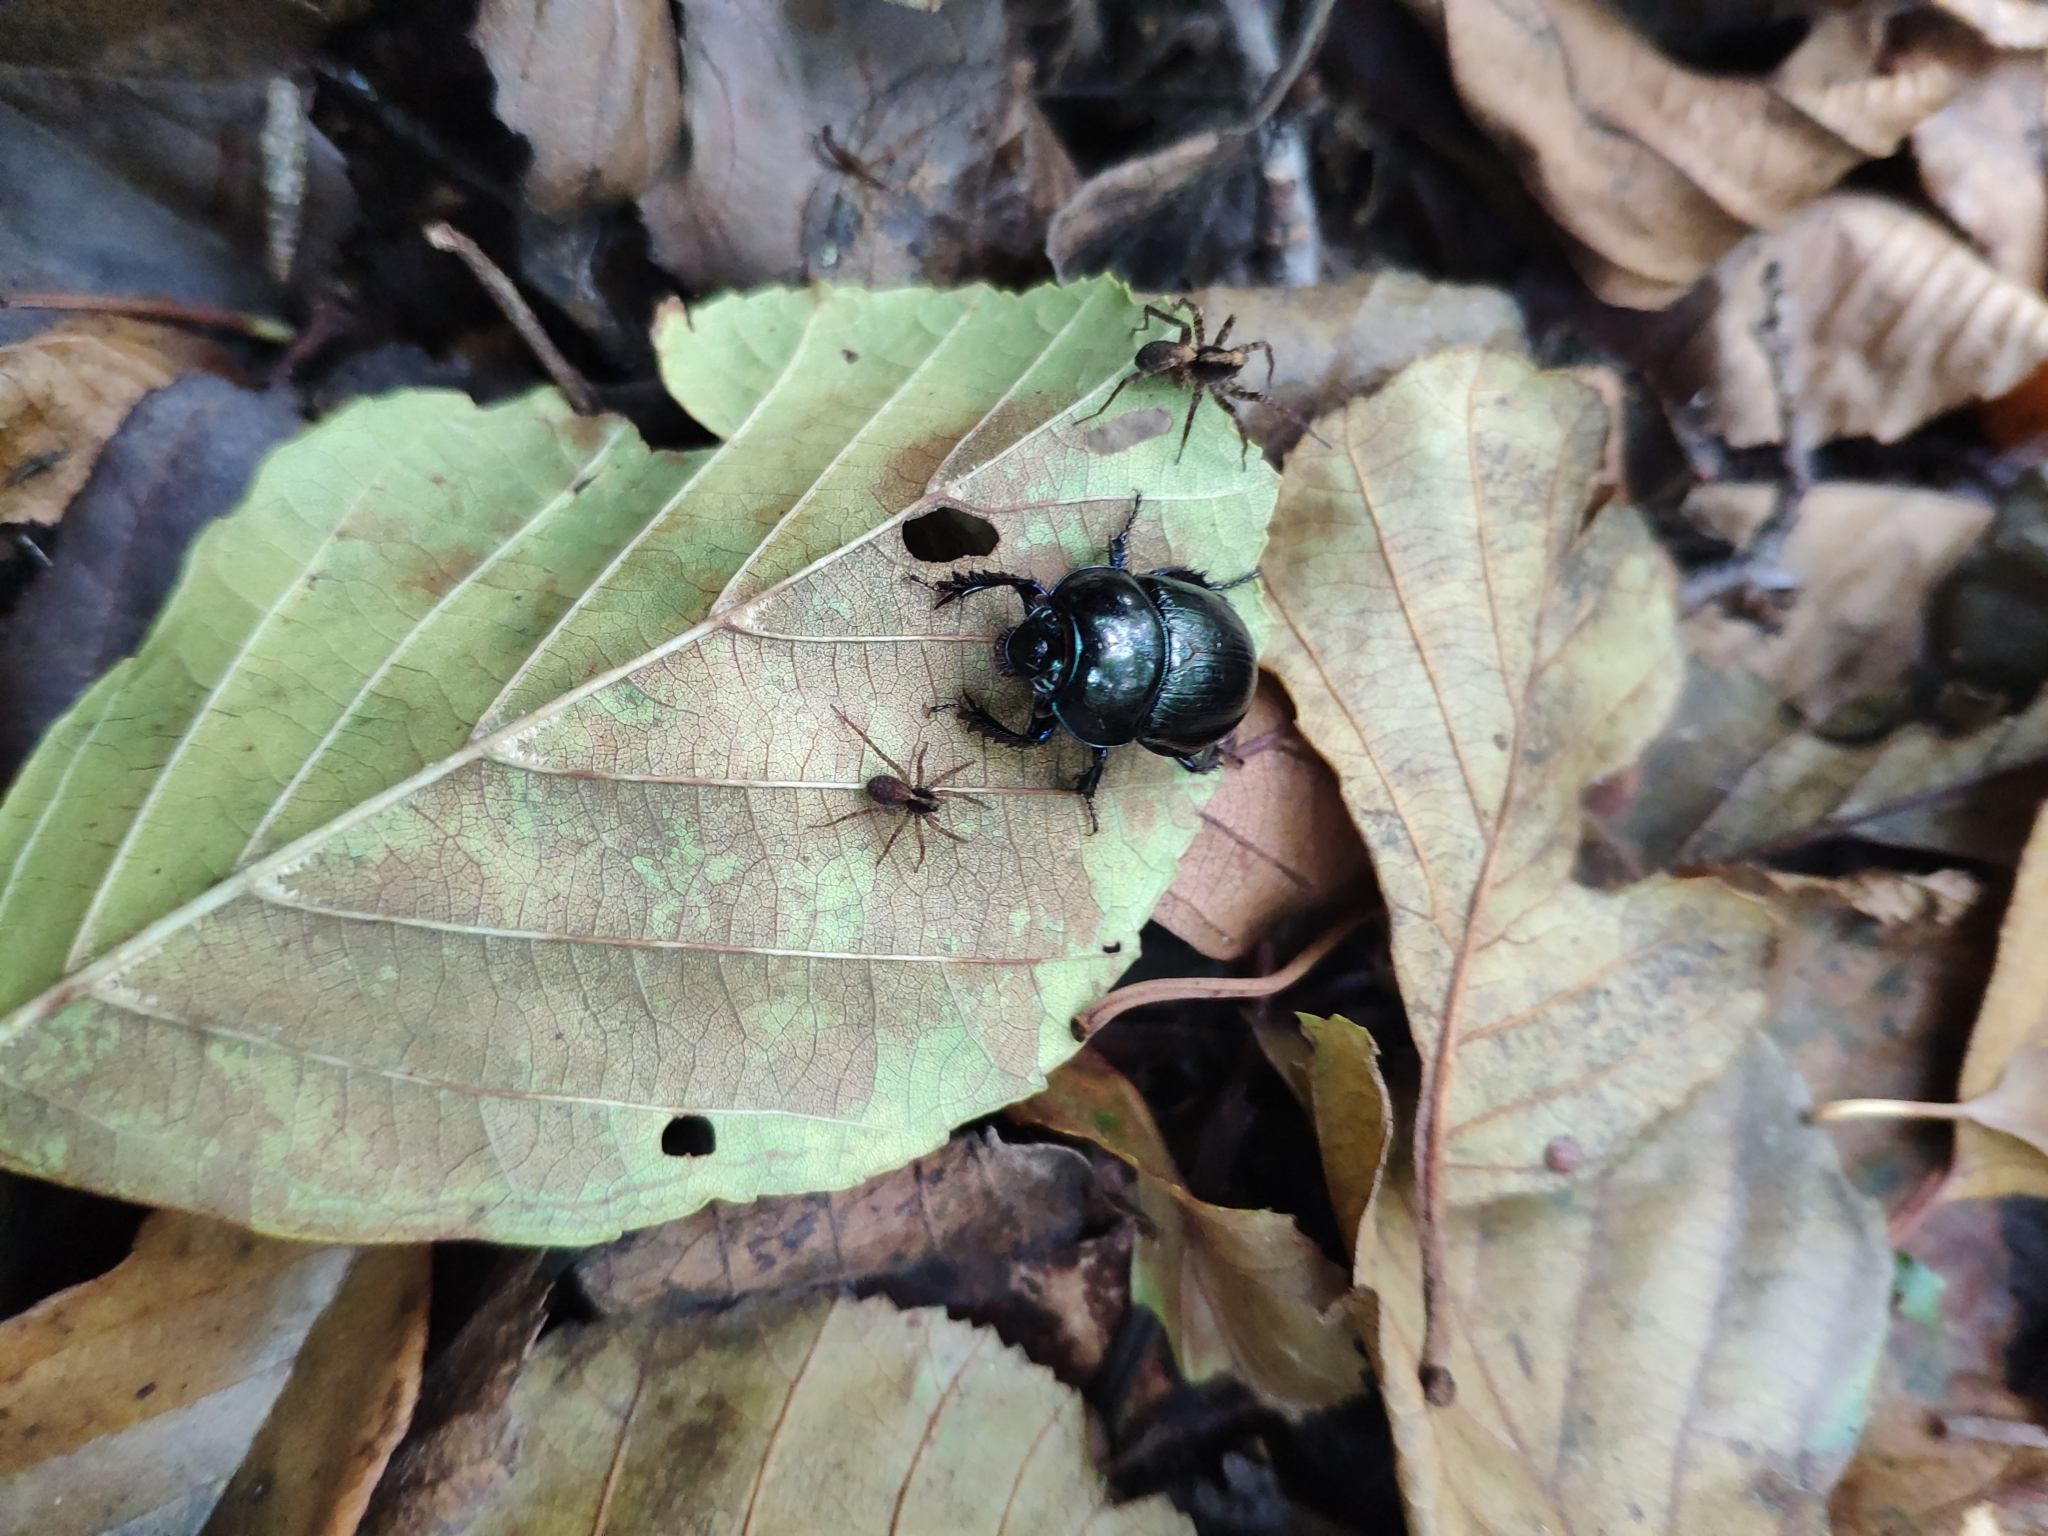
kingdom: Animalia
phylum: Arthropoda
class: Insecta
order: Coleoptera
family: Geotrupidae
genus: Anoplotrupes
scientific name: Anoplotrupes stercorosus
